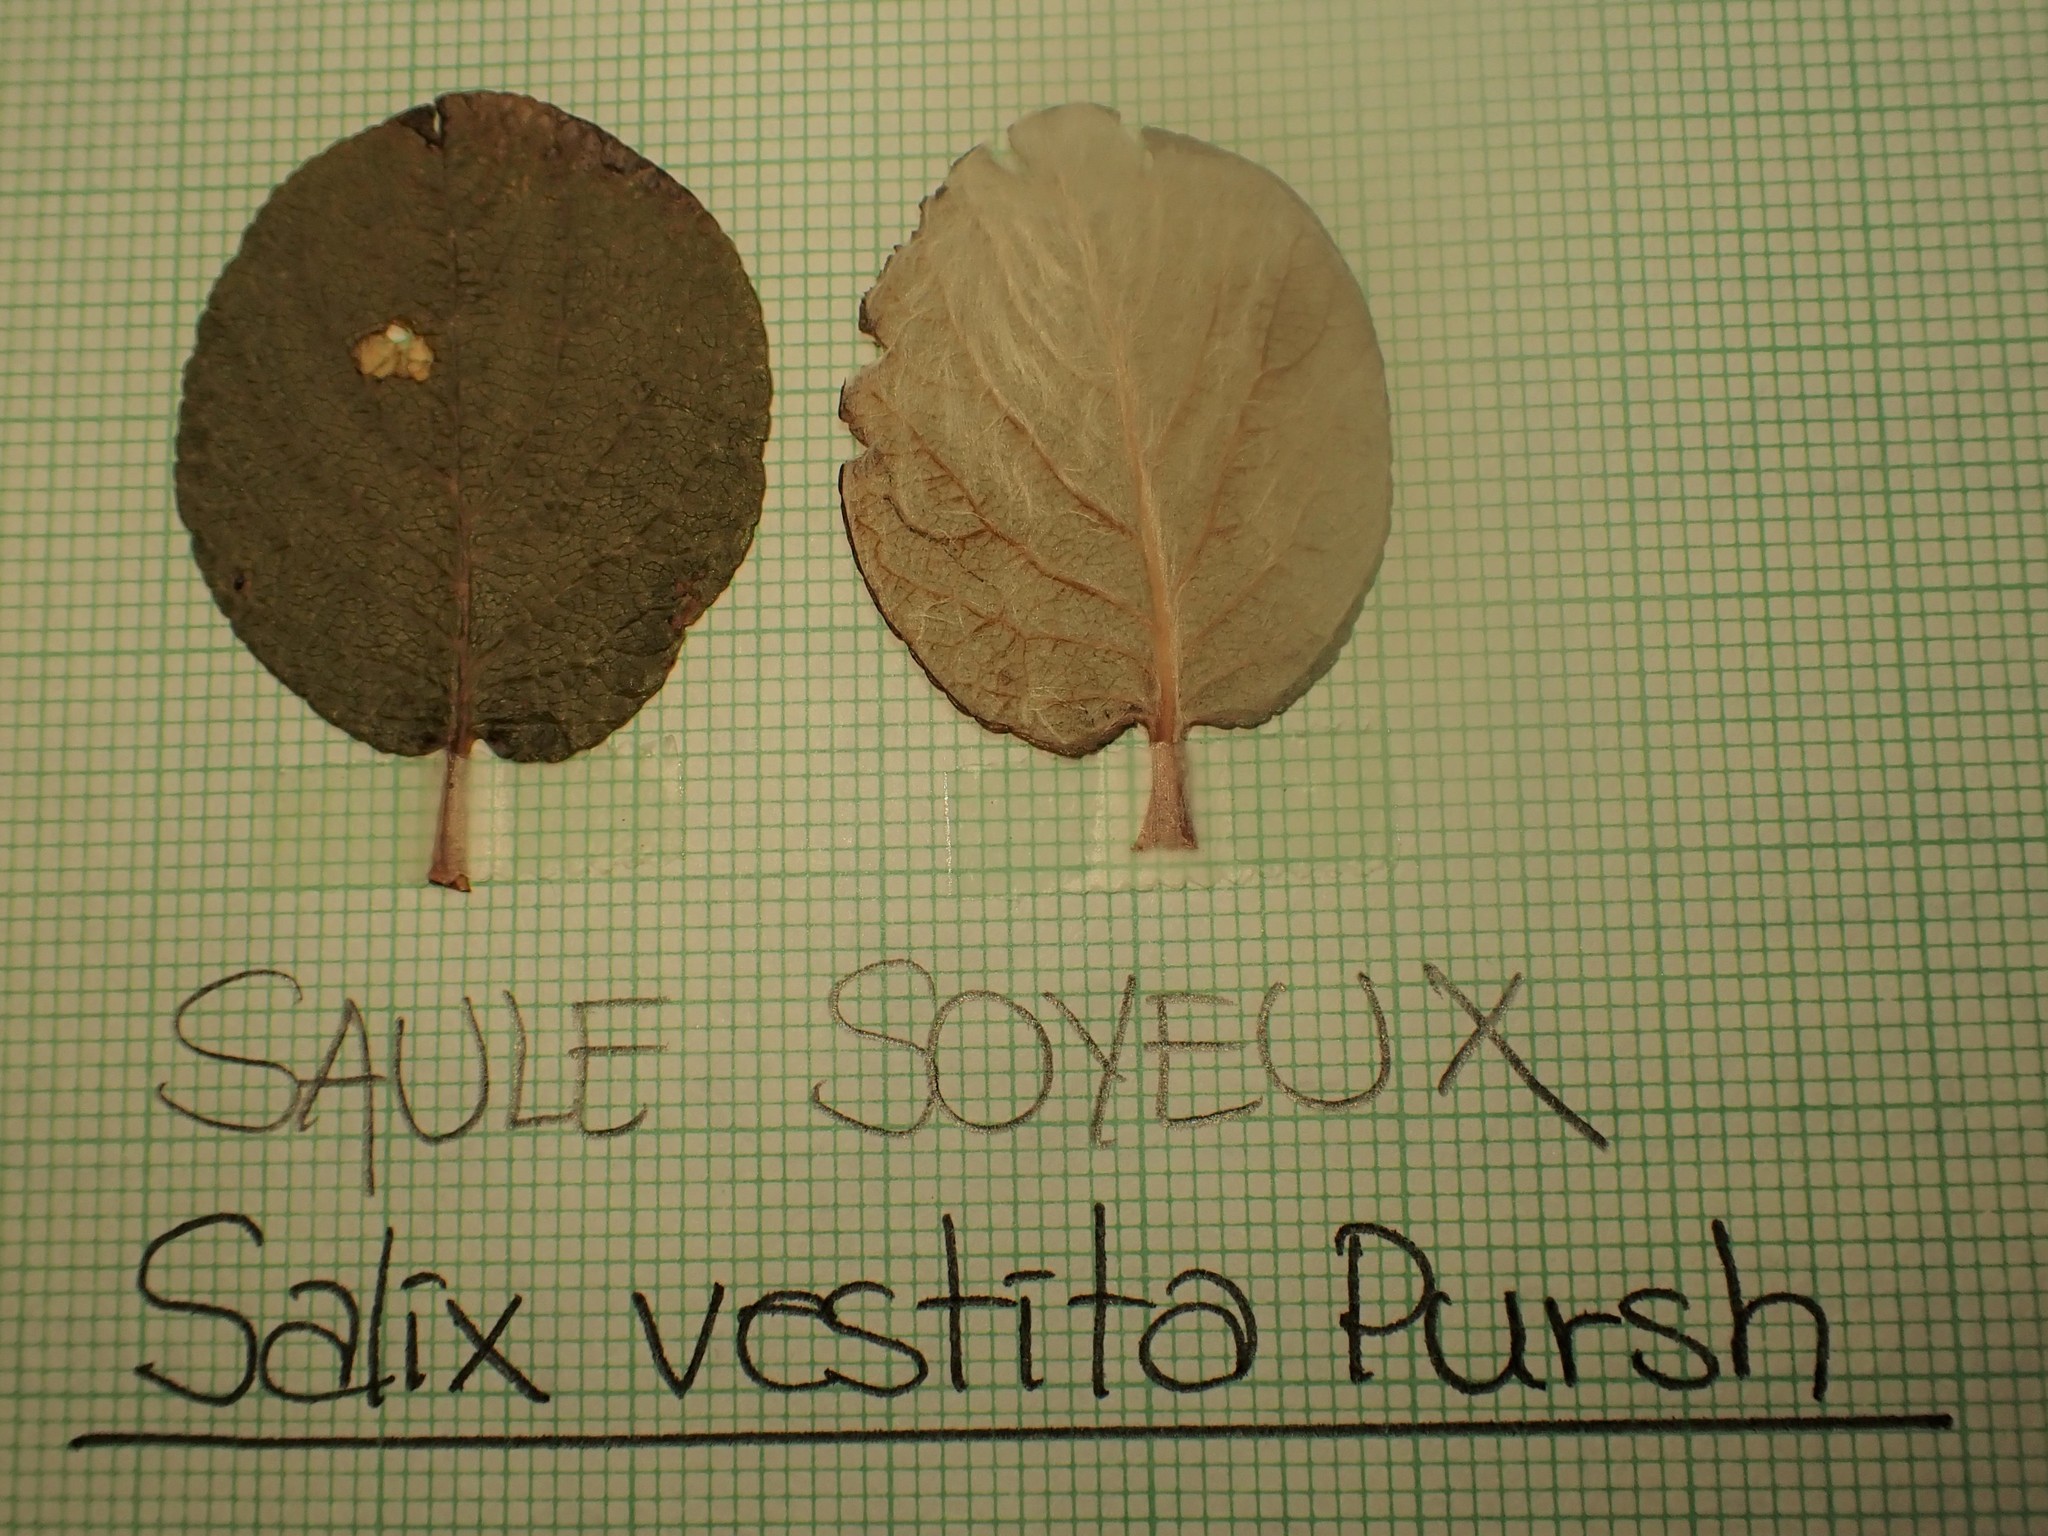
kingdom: Plantae
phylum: Tracheophyta
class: Magnoliopsida
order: Malpighiales
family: Salicaceae
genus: Salix
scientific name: Salix vestita
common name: Hairy willow
